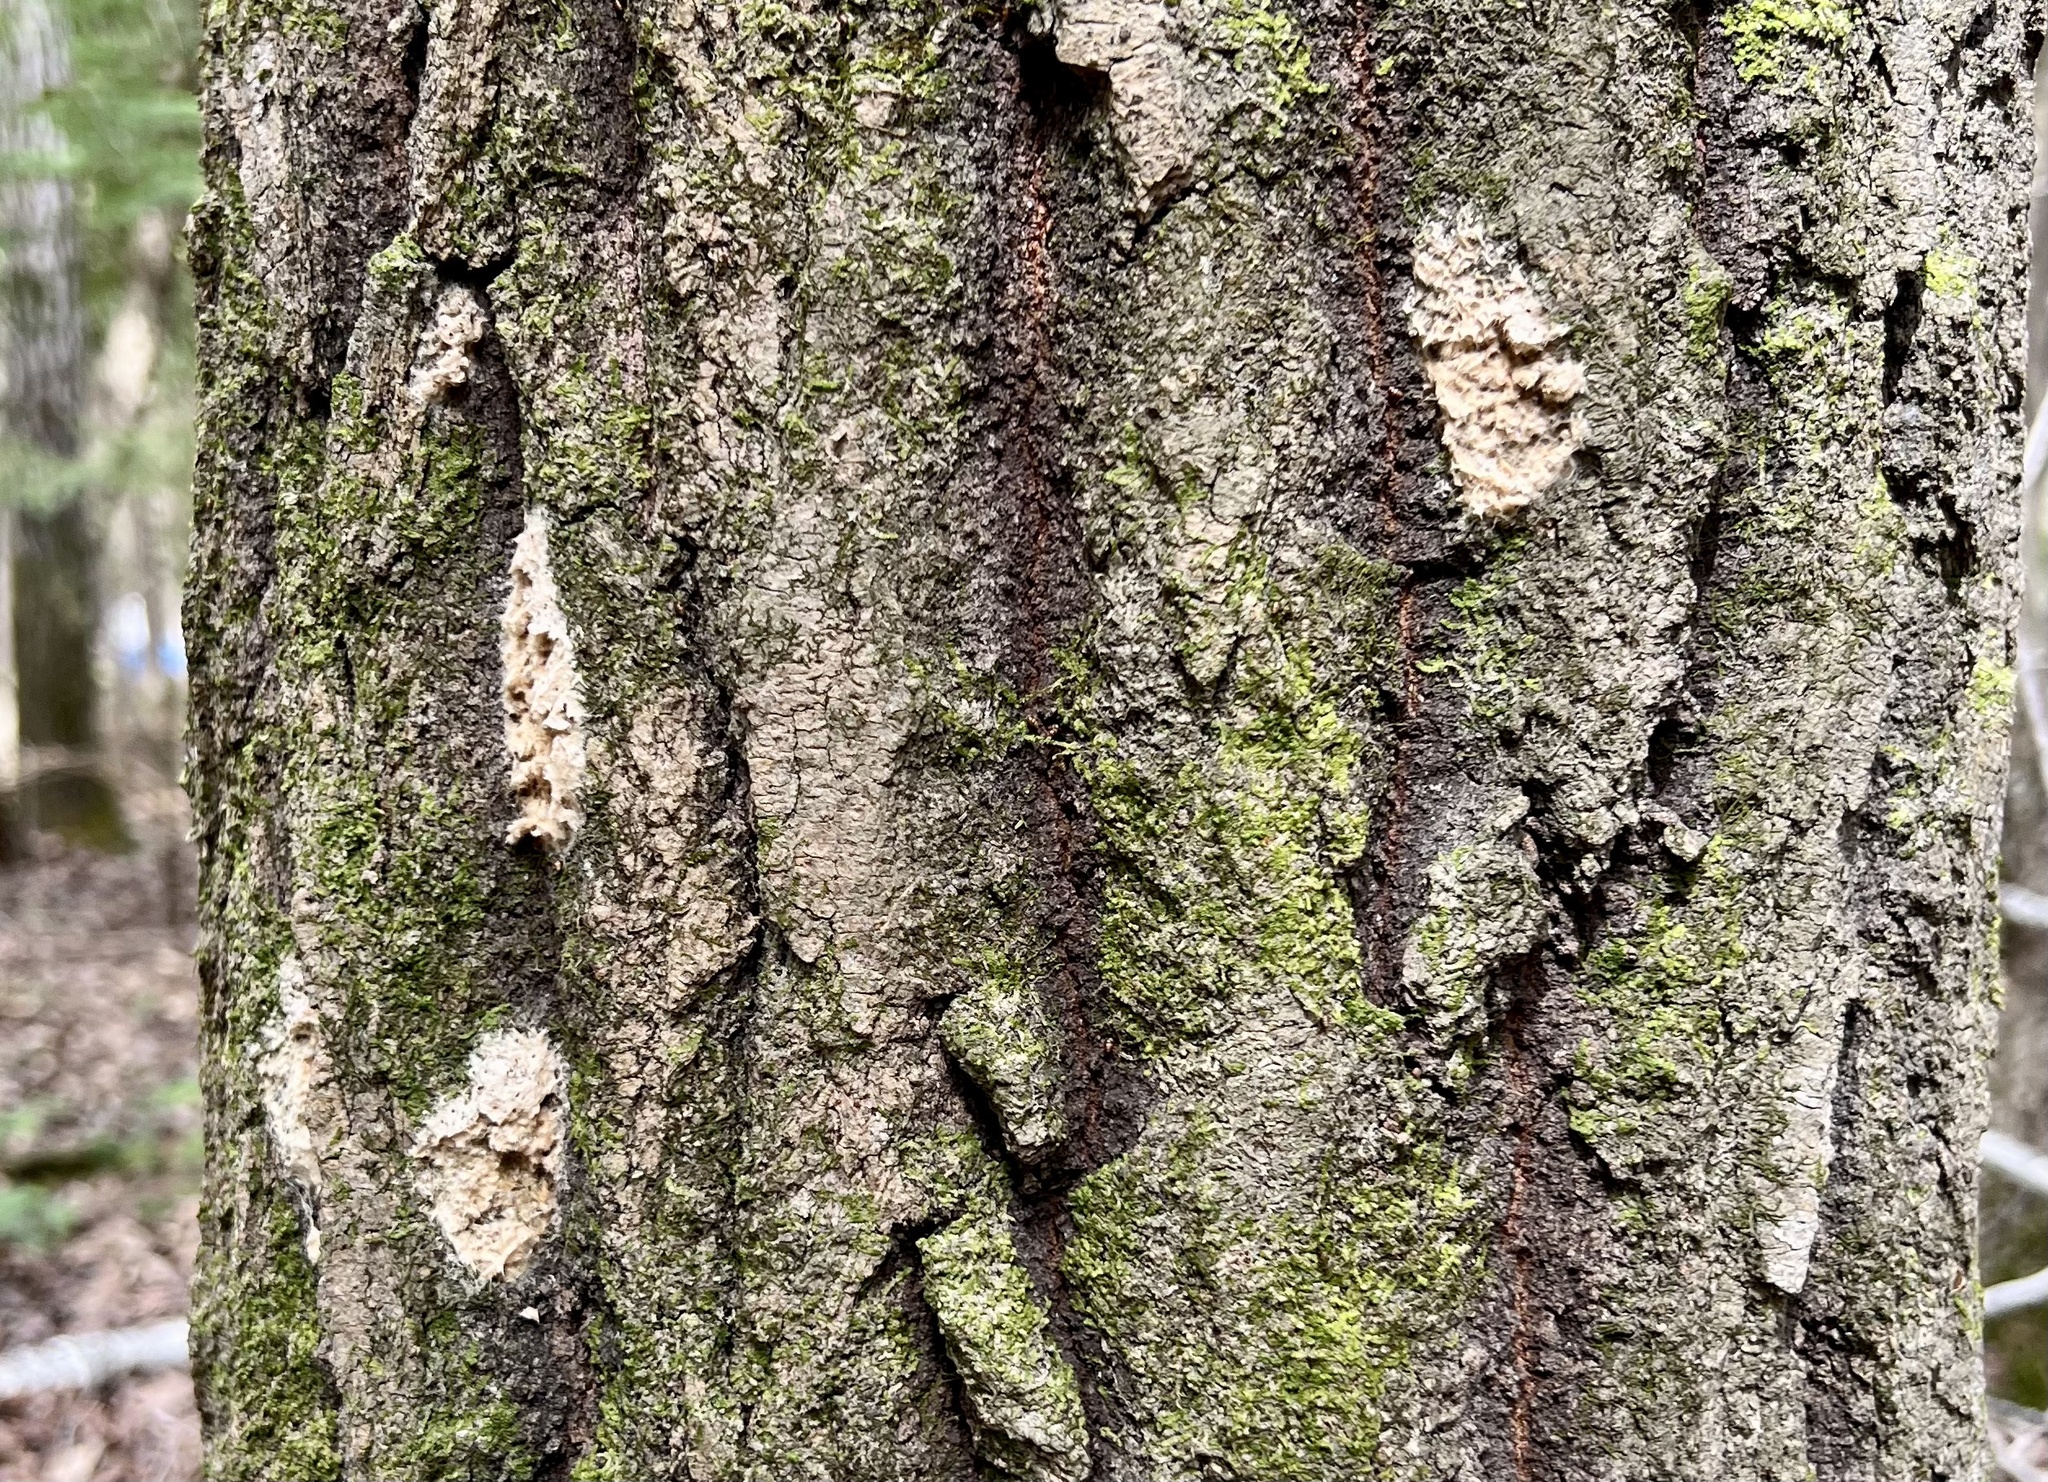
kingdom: Animalia
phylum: Arthropoda
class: Insecta
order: Lepidoptera
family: Erebidae
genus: Lymantria
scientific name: Lymantria dispar
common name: Gypsy moth
